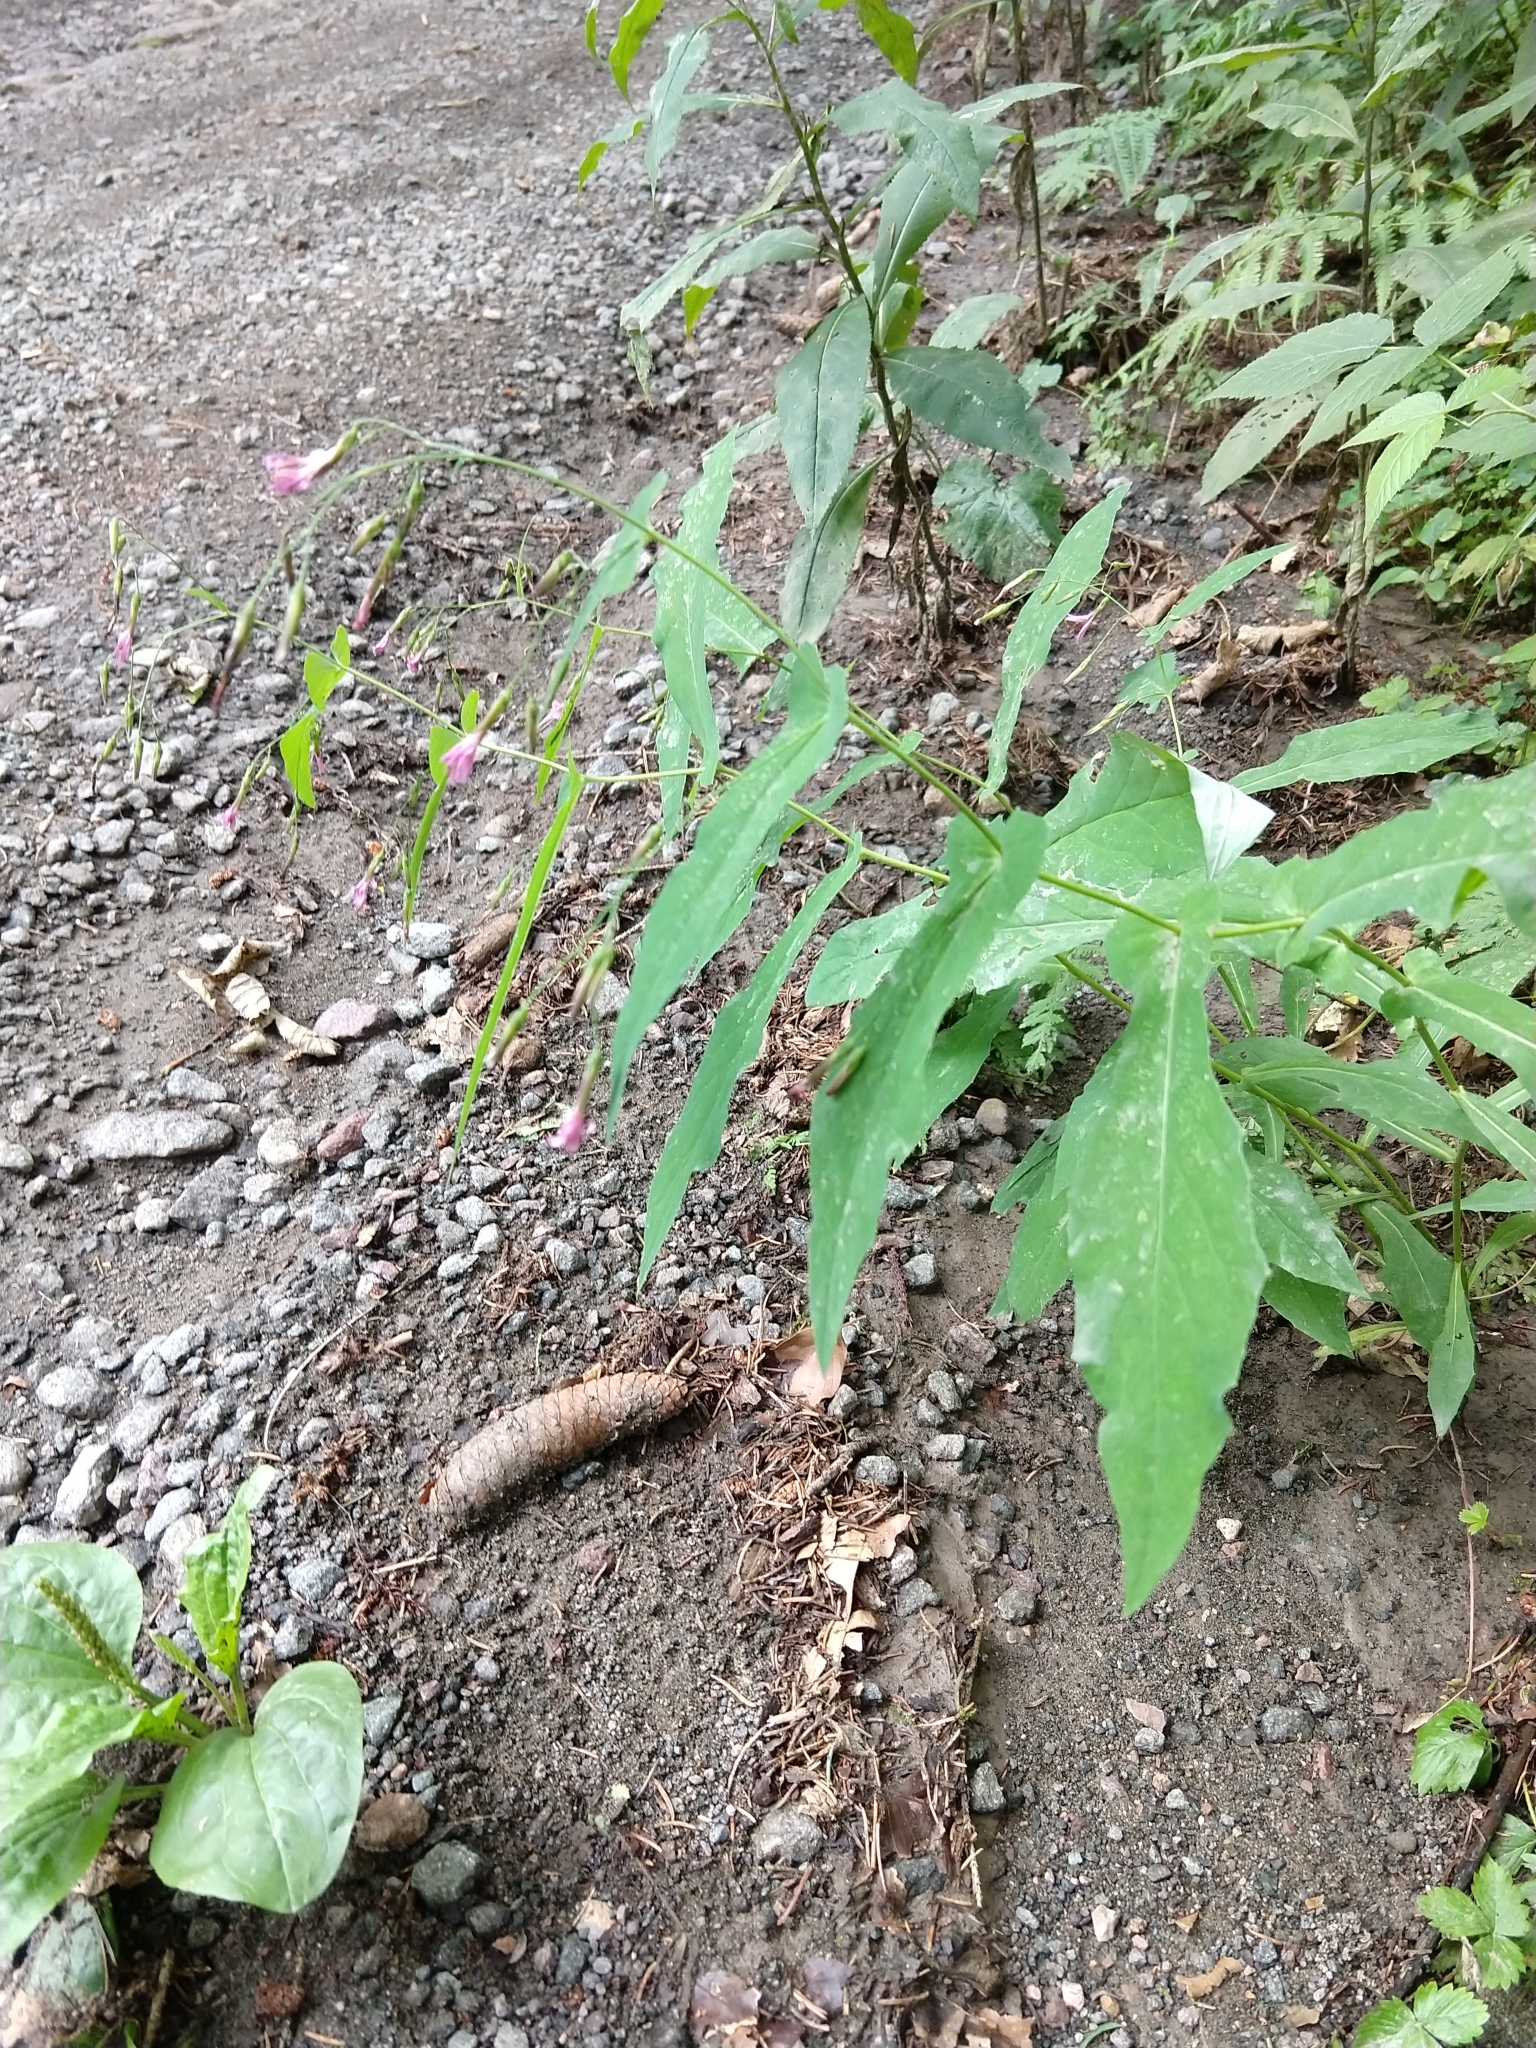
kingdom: Plantae
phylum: Tracheophyta
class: Magnoliopsida
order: Asterales
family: Asteraceae
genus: Prenanthes
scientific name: Prenanthes purpurea
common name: Purple lettuce
